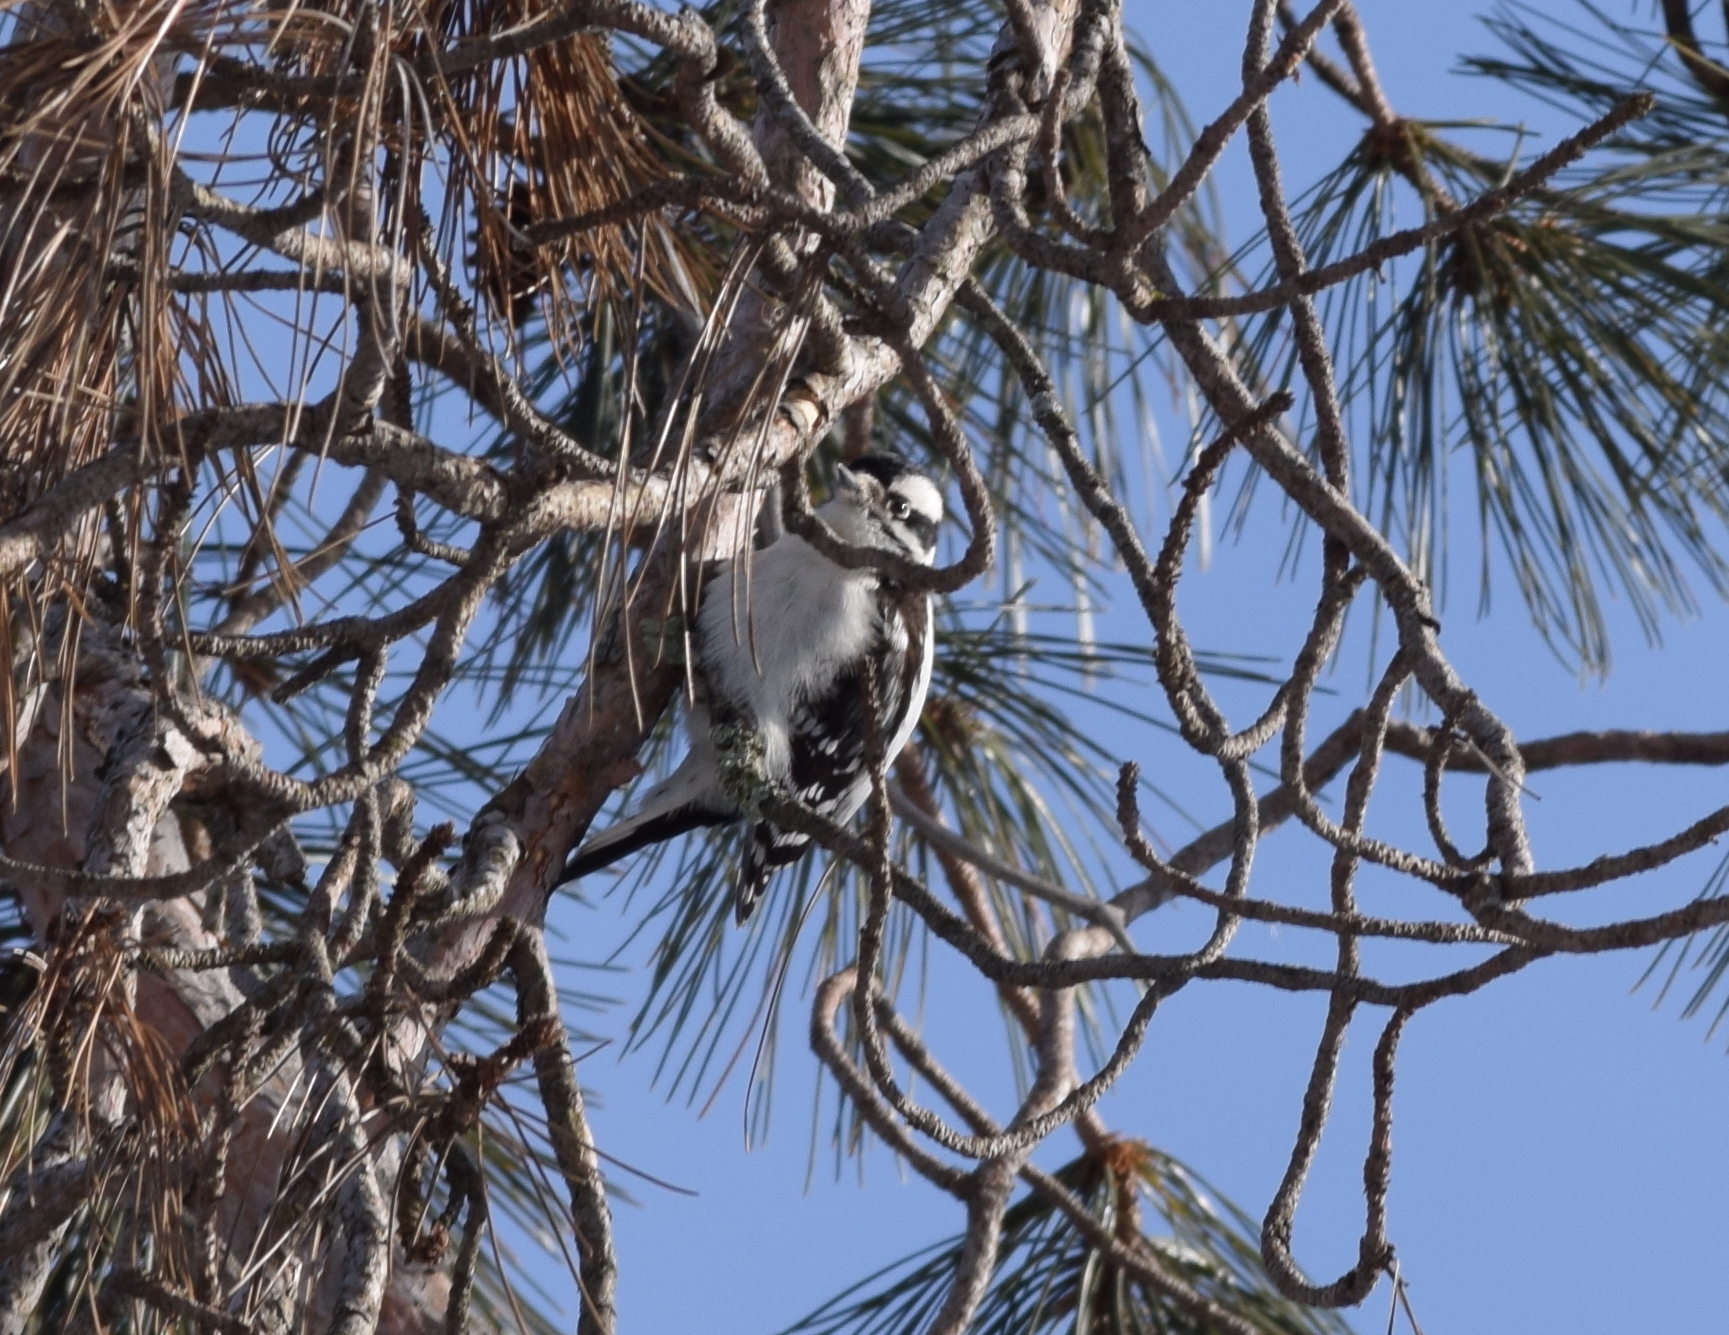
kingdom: Animalia
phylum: Chordata
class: Aves
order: Piciformes
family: Picidae
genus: Dryobates
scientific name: Dryobates pubescens
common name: Downy woodpecker
